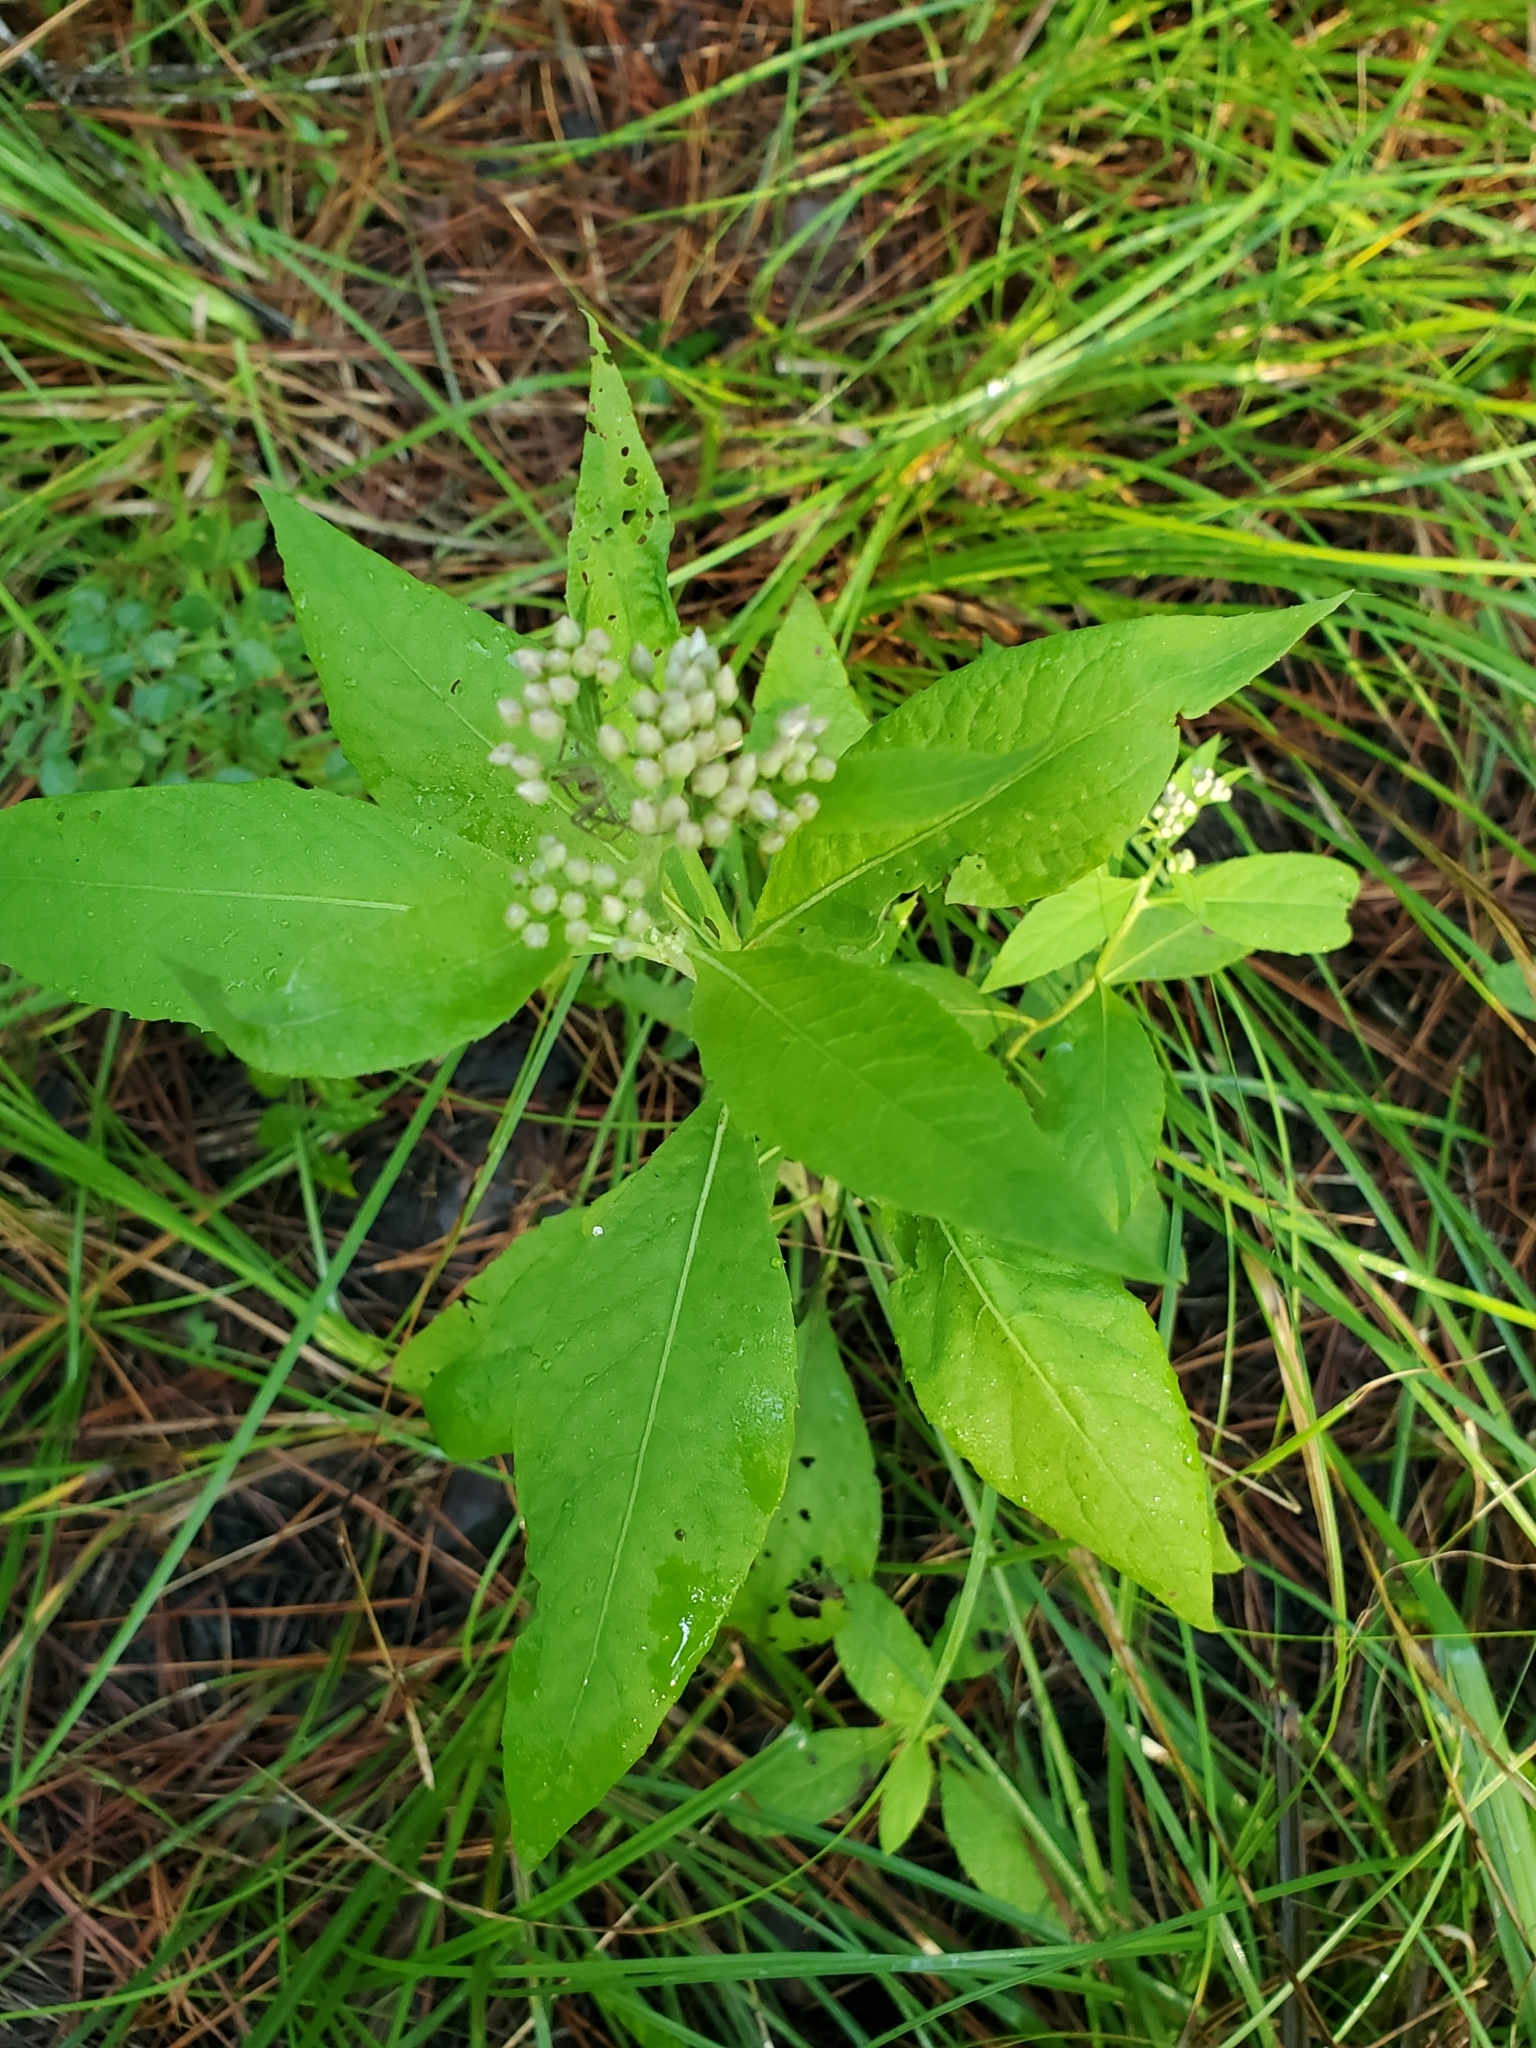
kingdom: Plantae
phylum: Tracheophyta
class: Magnoliopsida
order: Asterales
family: Asteraceae
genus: Pluchea
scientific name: Pluchea camphorata
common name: Camphor pluchea
